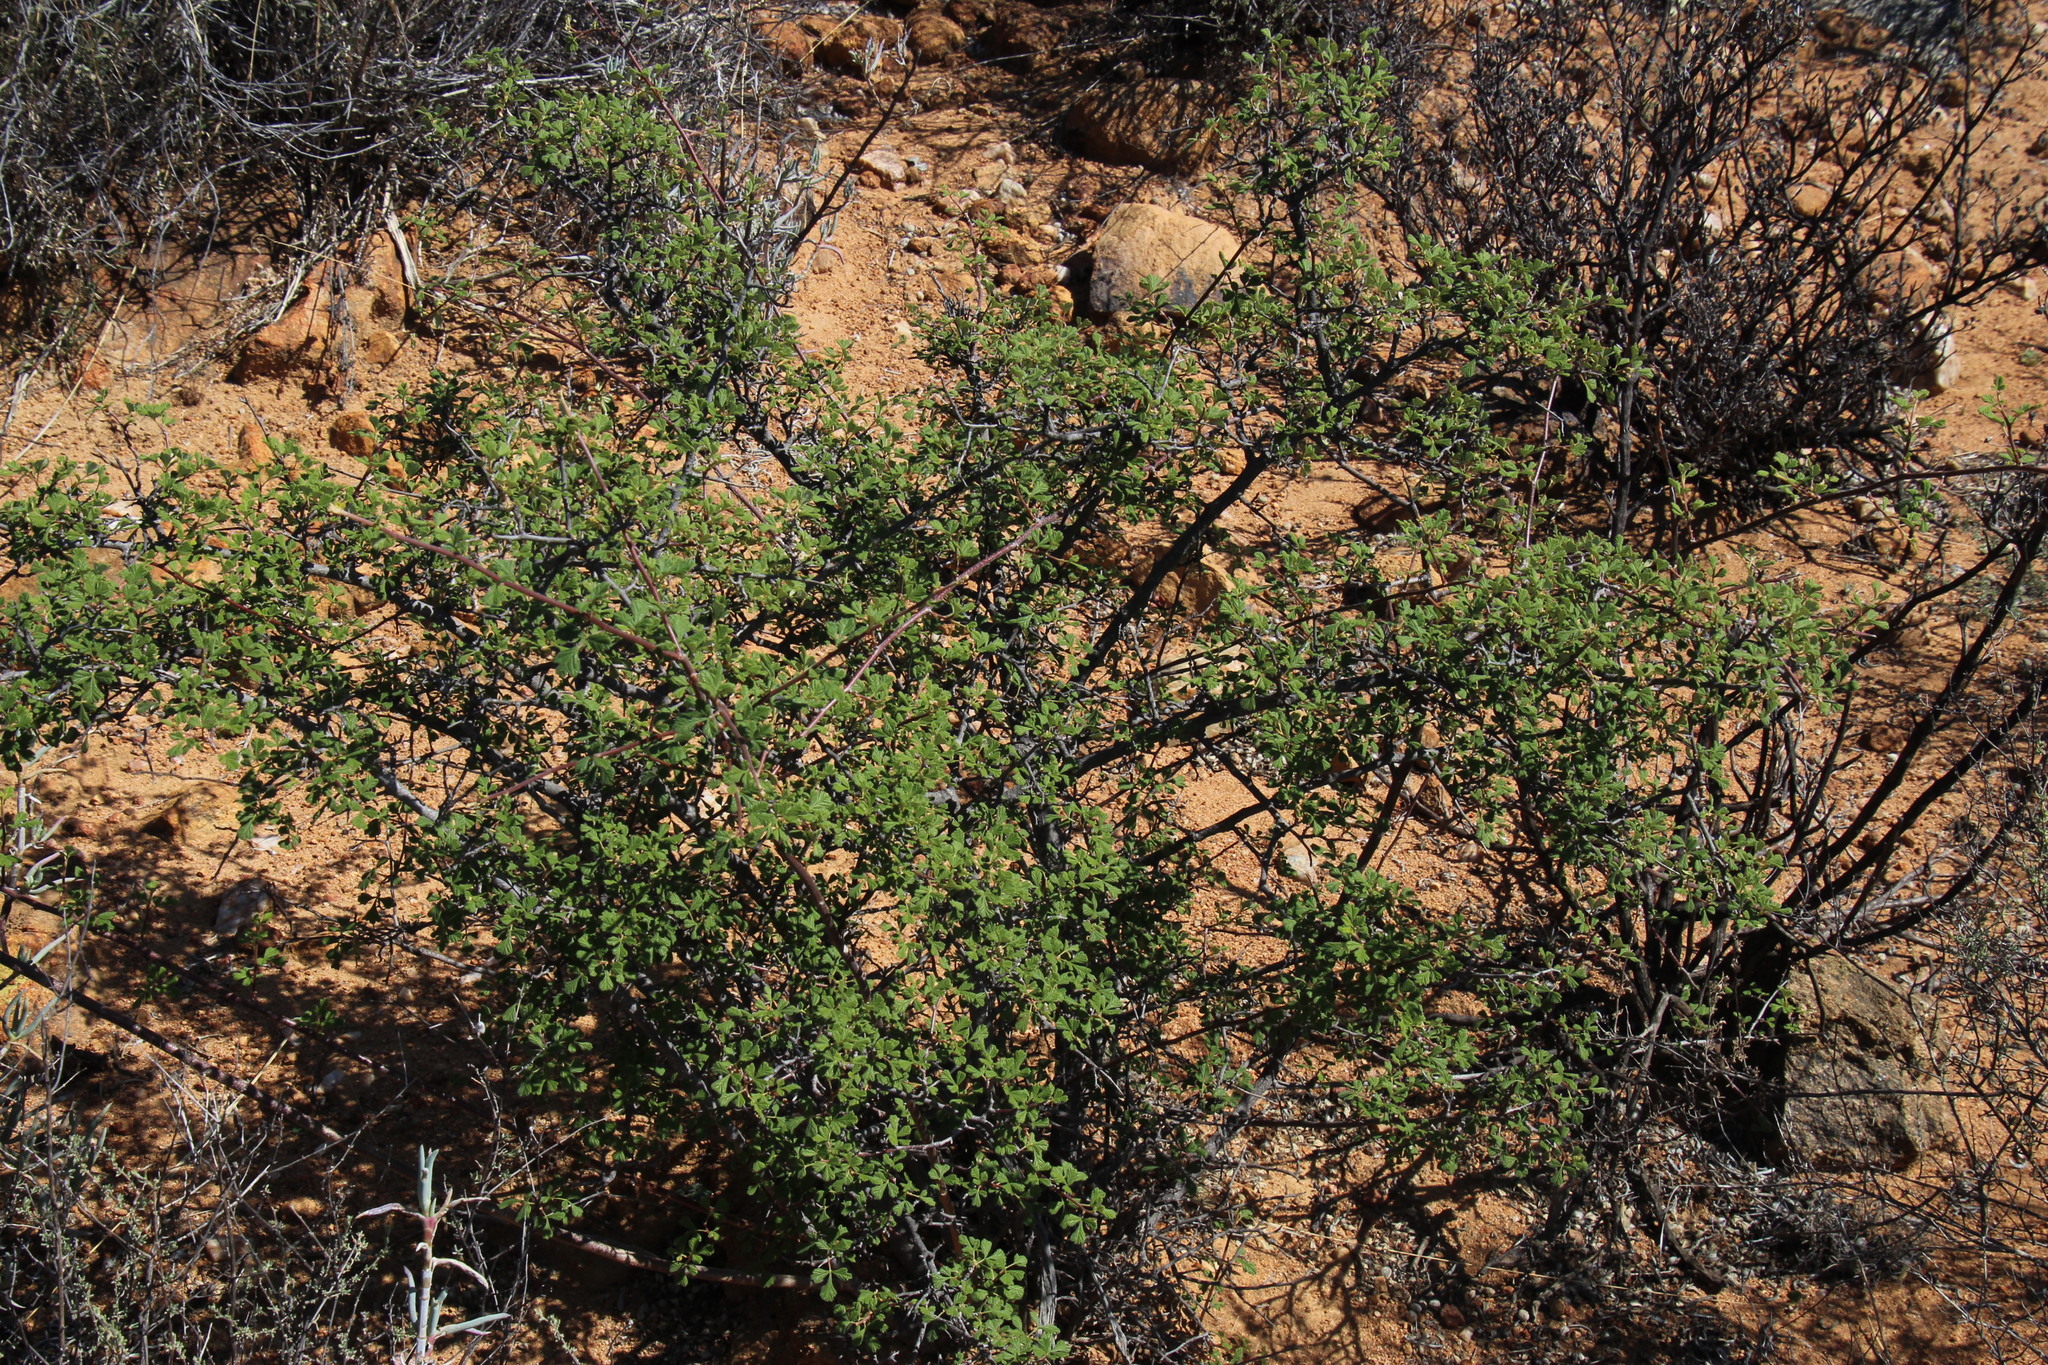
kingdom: Plantae
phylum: Tracheophyta
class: Magnoliopsida
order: Sapindales
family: Anacardiaceae
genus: Searsia
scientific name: Searsia incisa
